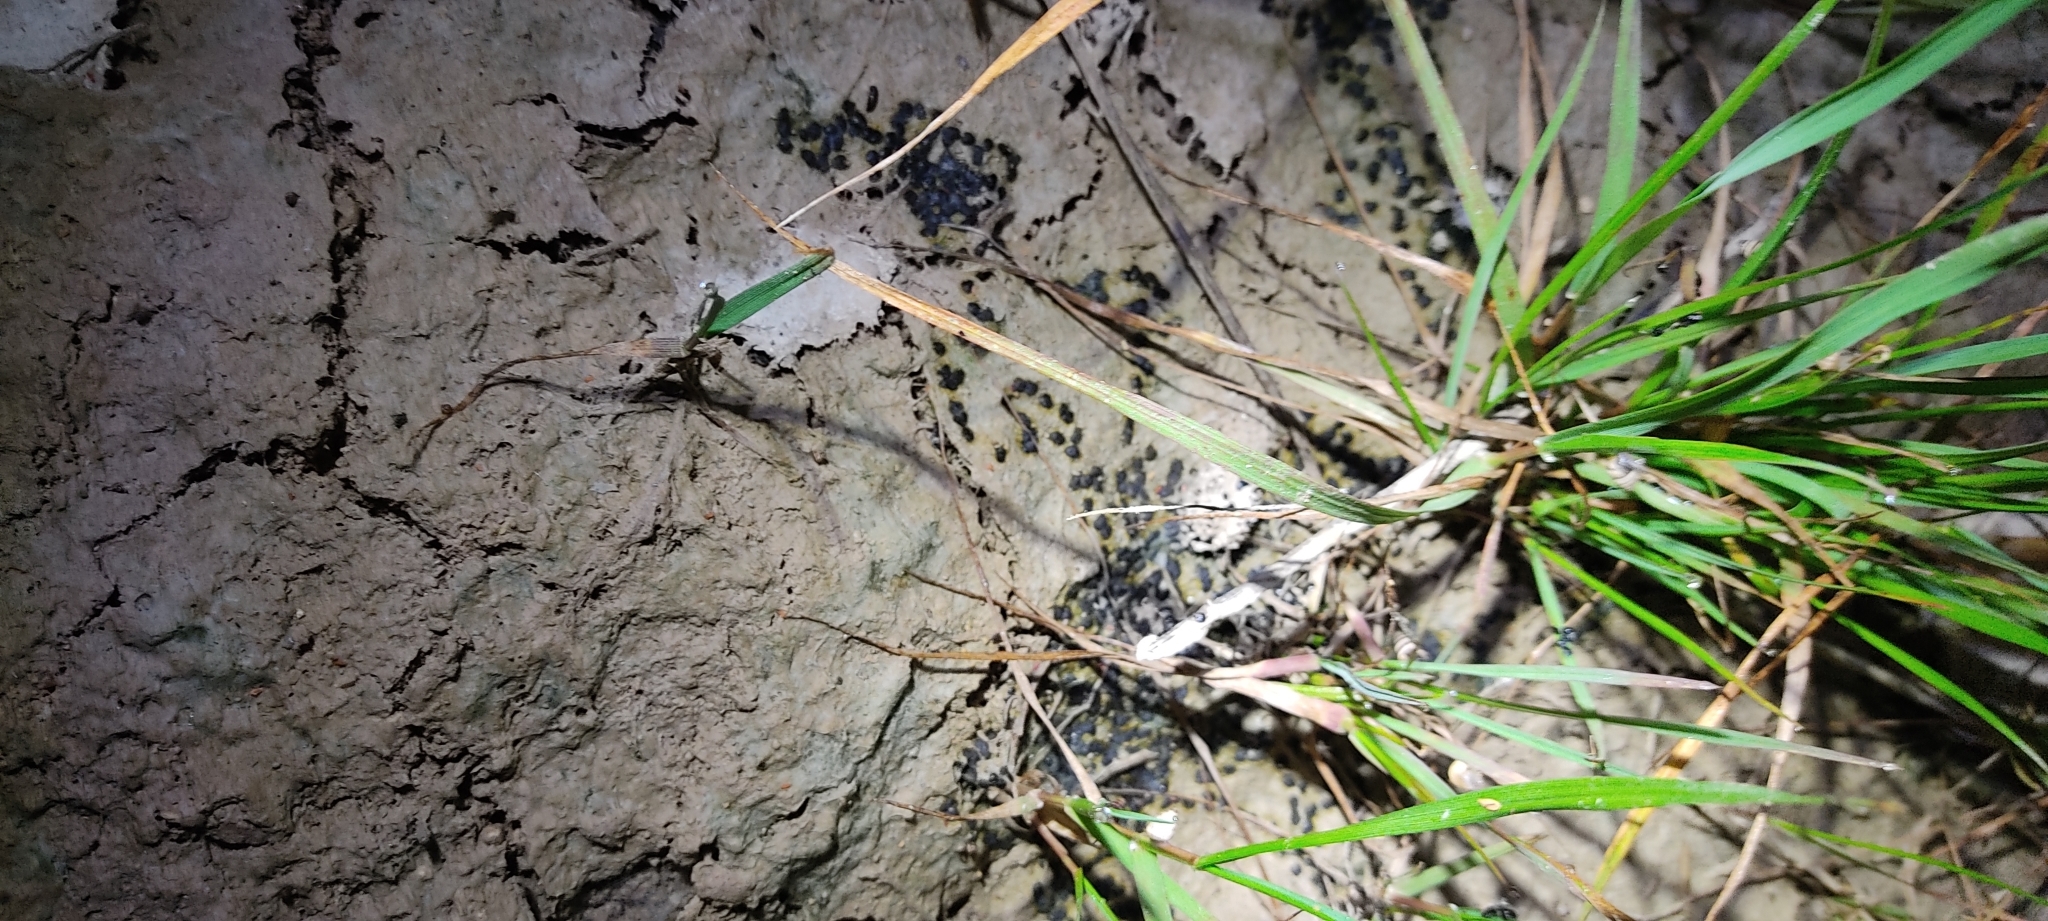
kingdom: Animalia
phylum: Chordata
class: Amphibia
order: Anura
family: Bufonidae
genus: Epidalea
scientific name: Epidalea calamita
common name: Natterjack toad
